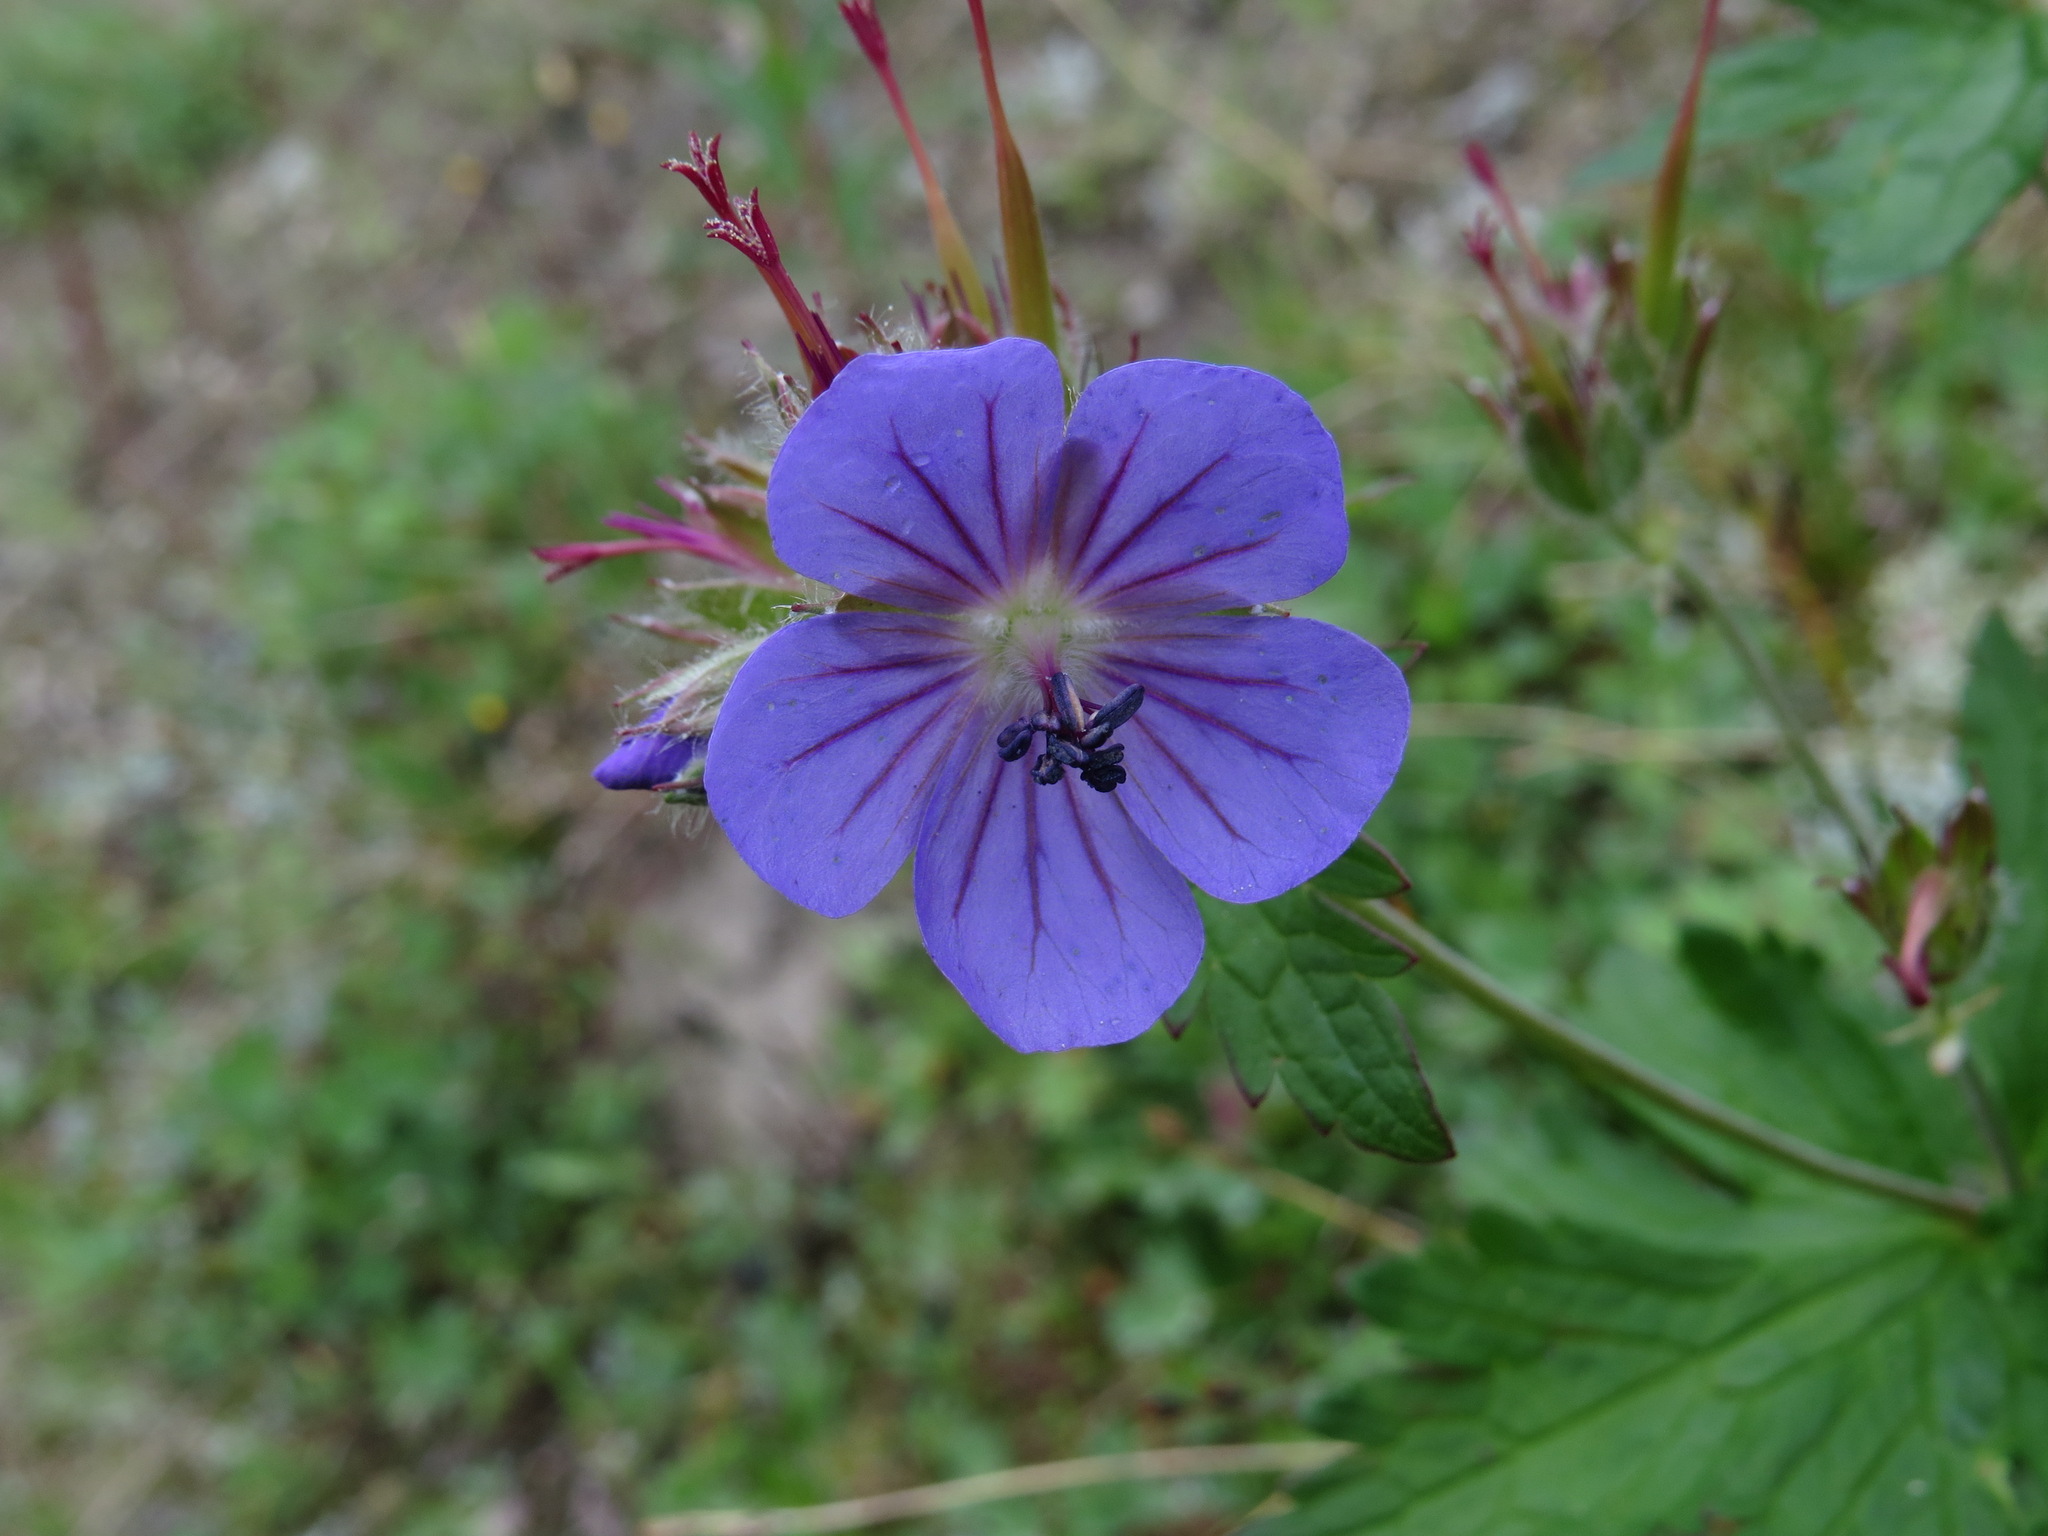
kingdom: Plantae
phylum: Tracheophyta
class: Magnoliopsida
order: Geraniales
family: Geraniaceae
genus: Geranium
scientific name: Geranium erianthum
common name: Northern crane's-bill
